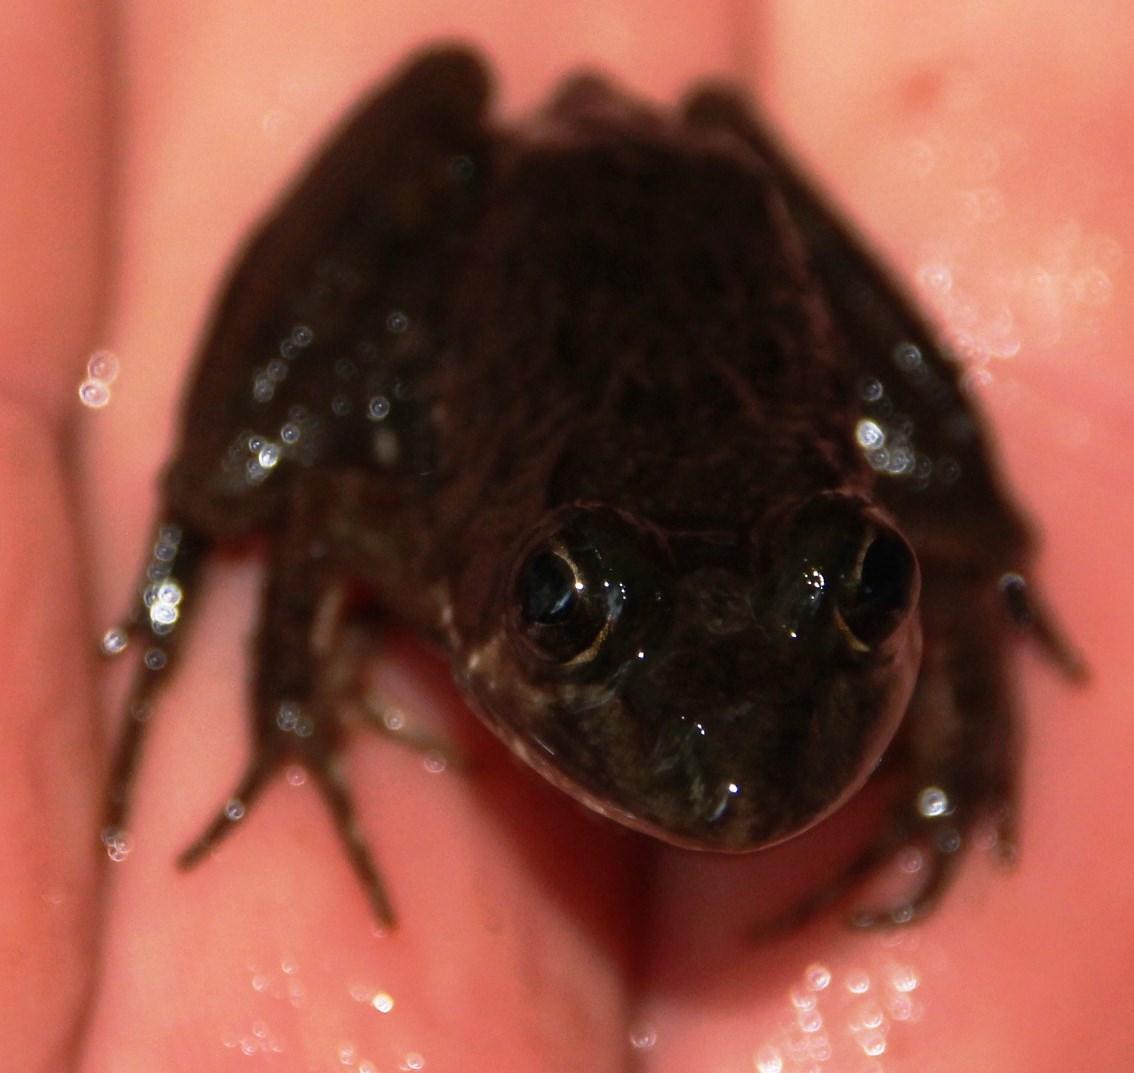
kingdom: Animalia
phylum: Chordata
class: Amphibia
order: Anura
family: Pyxicephalidae
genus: Amietia
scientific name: Amietia fuscigula
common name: Cape rana
